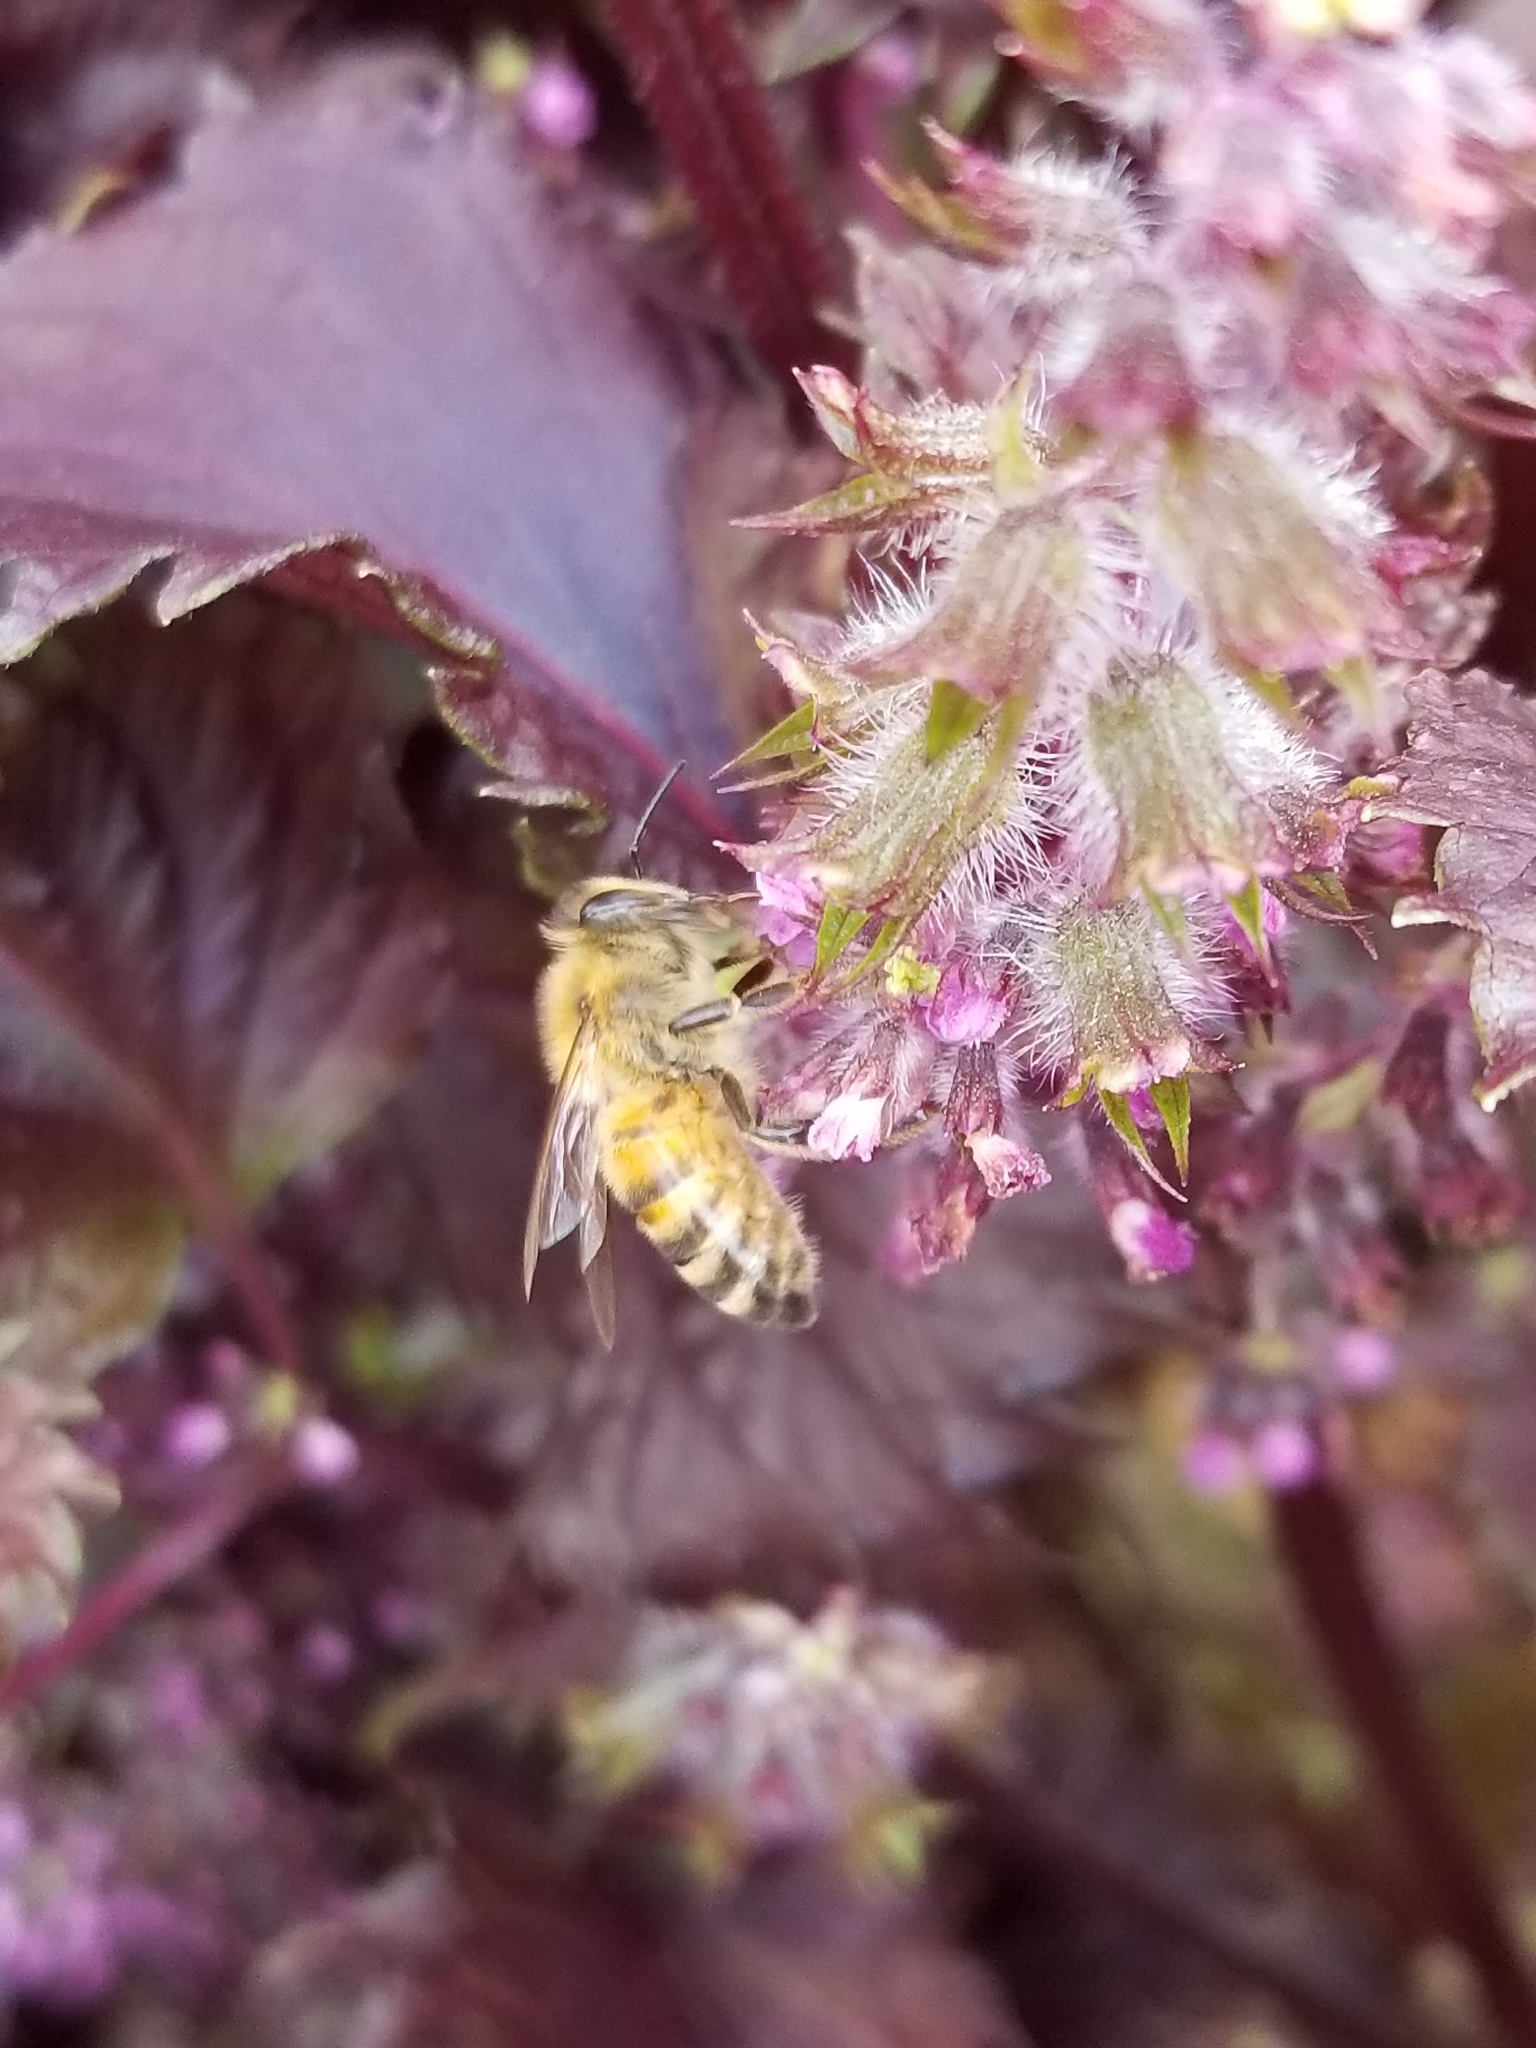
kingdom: Animalia
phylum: Arthropoda
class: Insecta
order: Hymenoptera
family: Apidae
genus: Apis
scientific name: Apis mellifera
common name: Honey bee
